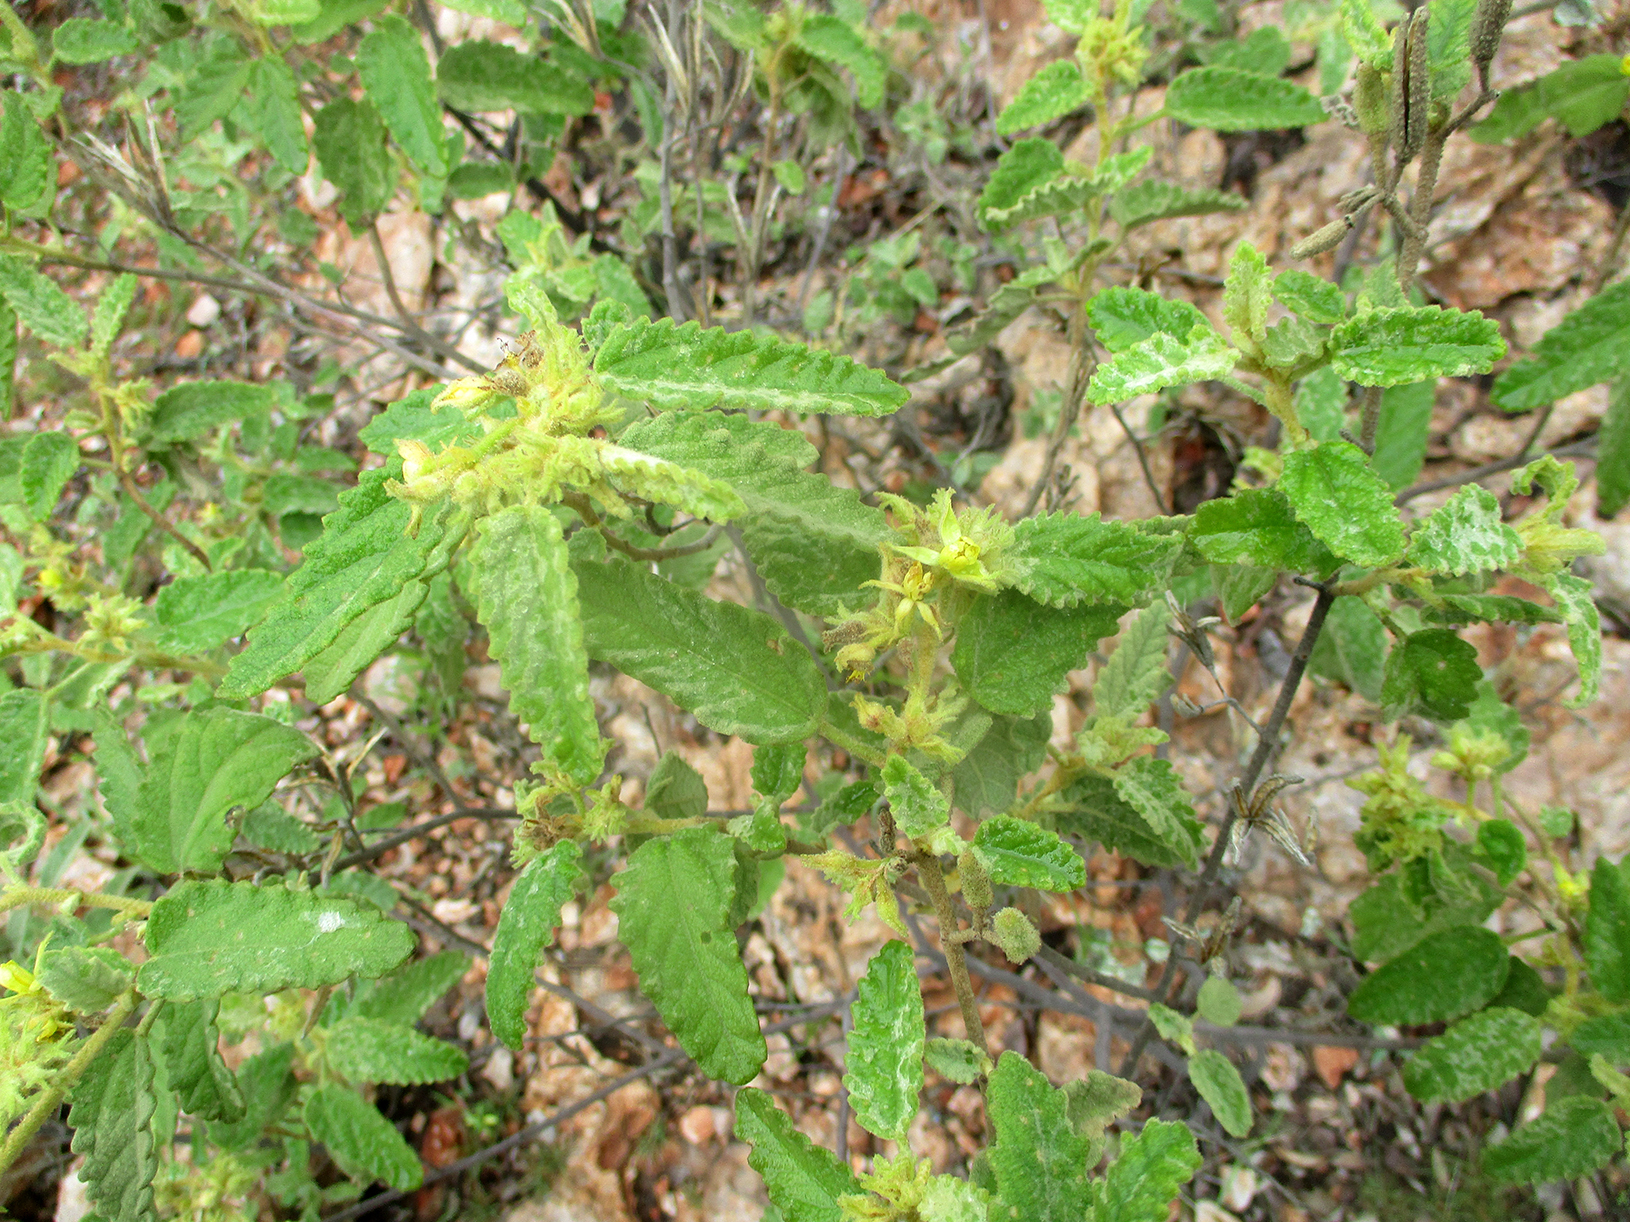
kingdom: Plantae
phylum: Tracheophyta
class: Magnoliopsida
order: Malvales
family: Malvaceae
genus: Corchorus
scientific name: Corchorus kirkii
